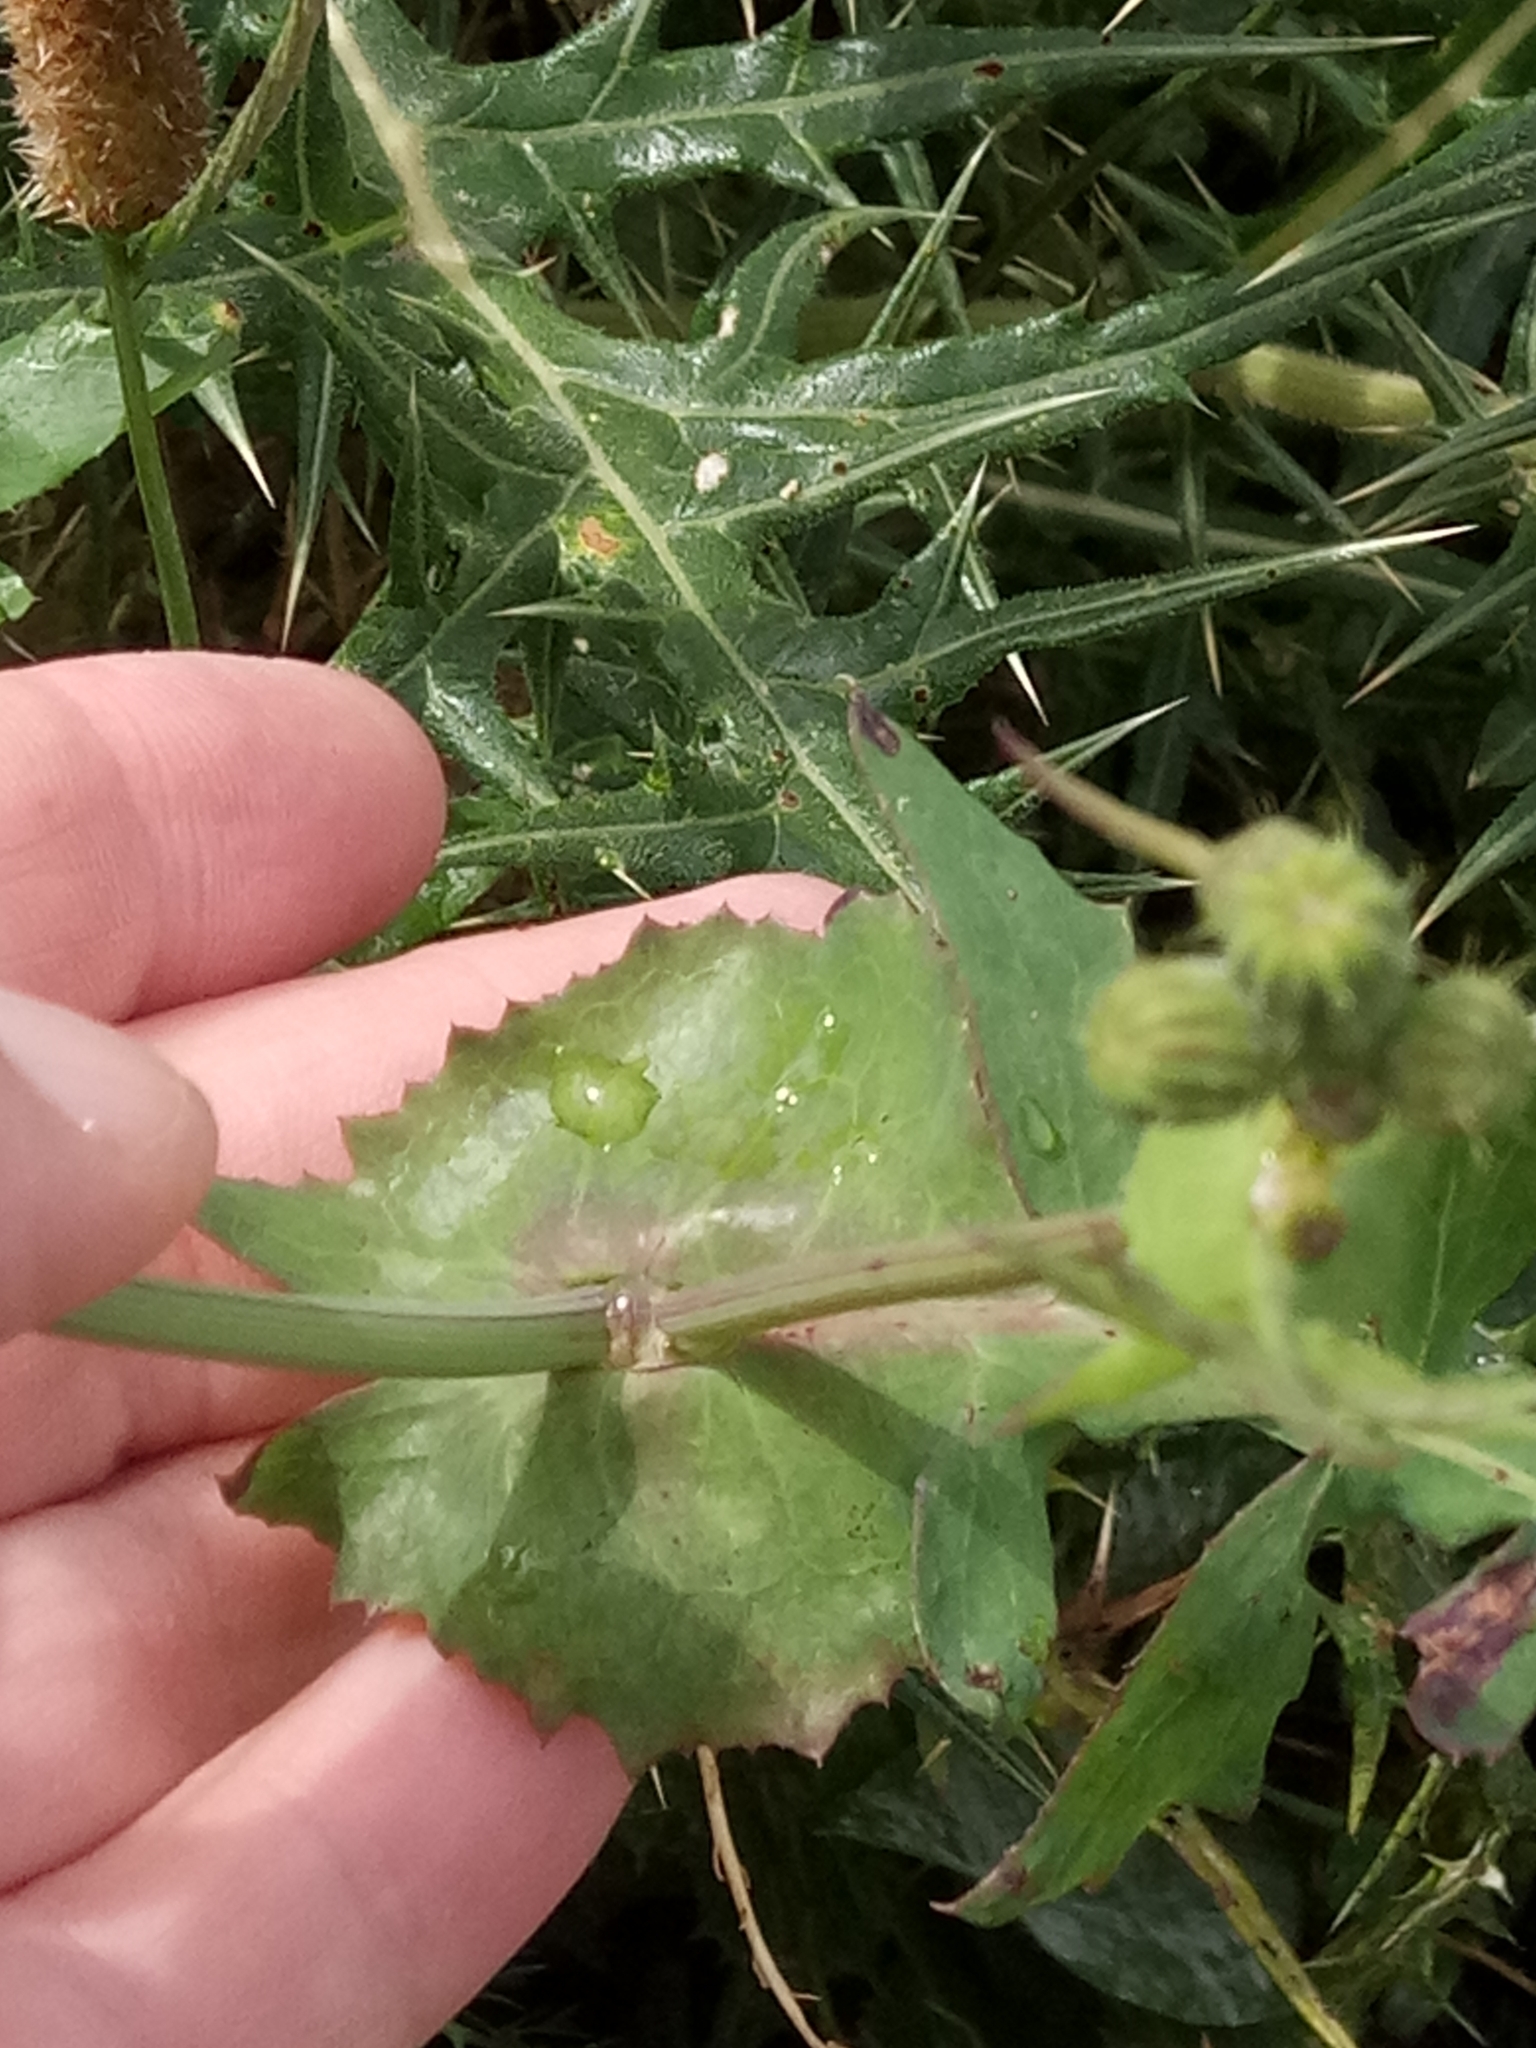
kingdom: Plantae
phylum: Tracheophyta
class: Magnoliopsida
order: Asterales
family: Asteraceae
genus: Sonchus
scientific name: Sonchus tenerrimus
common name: Clammy sowthistle
